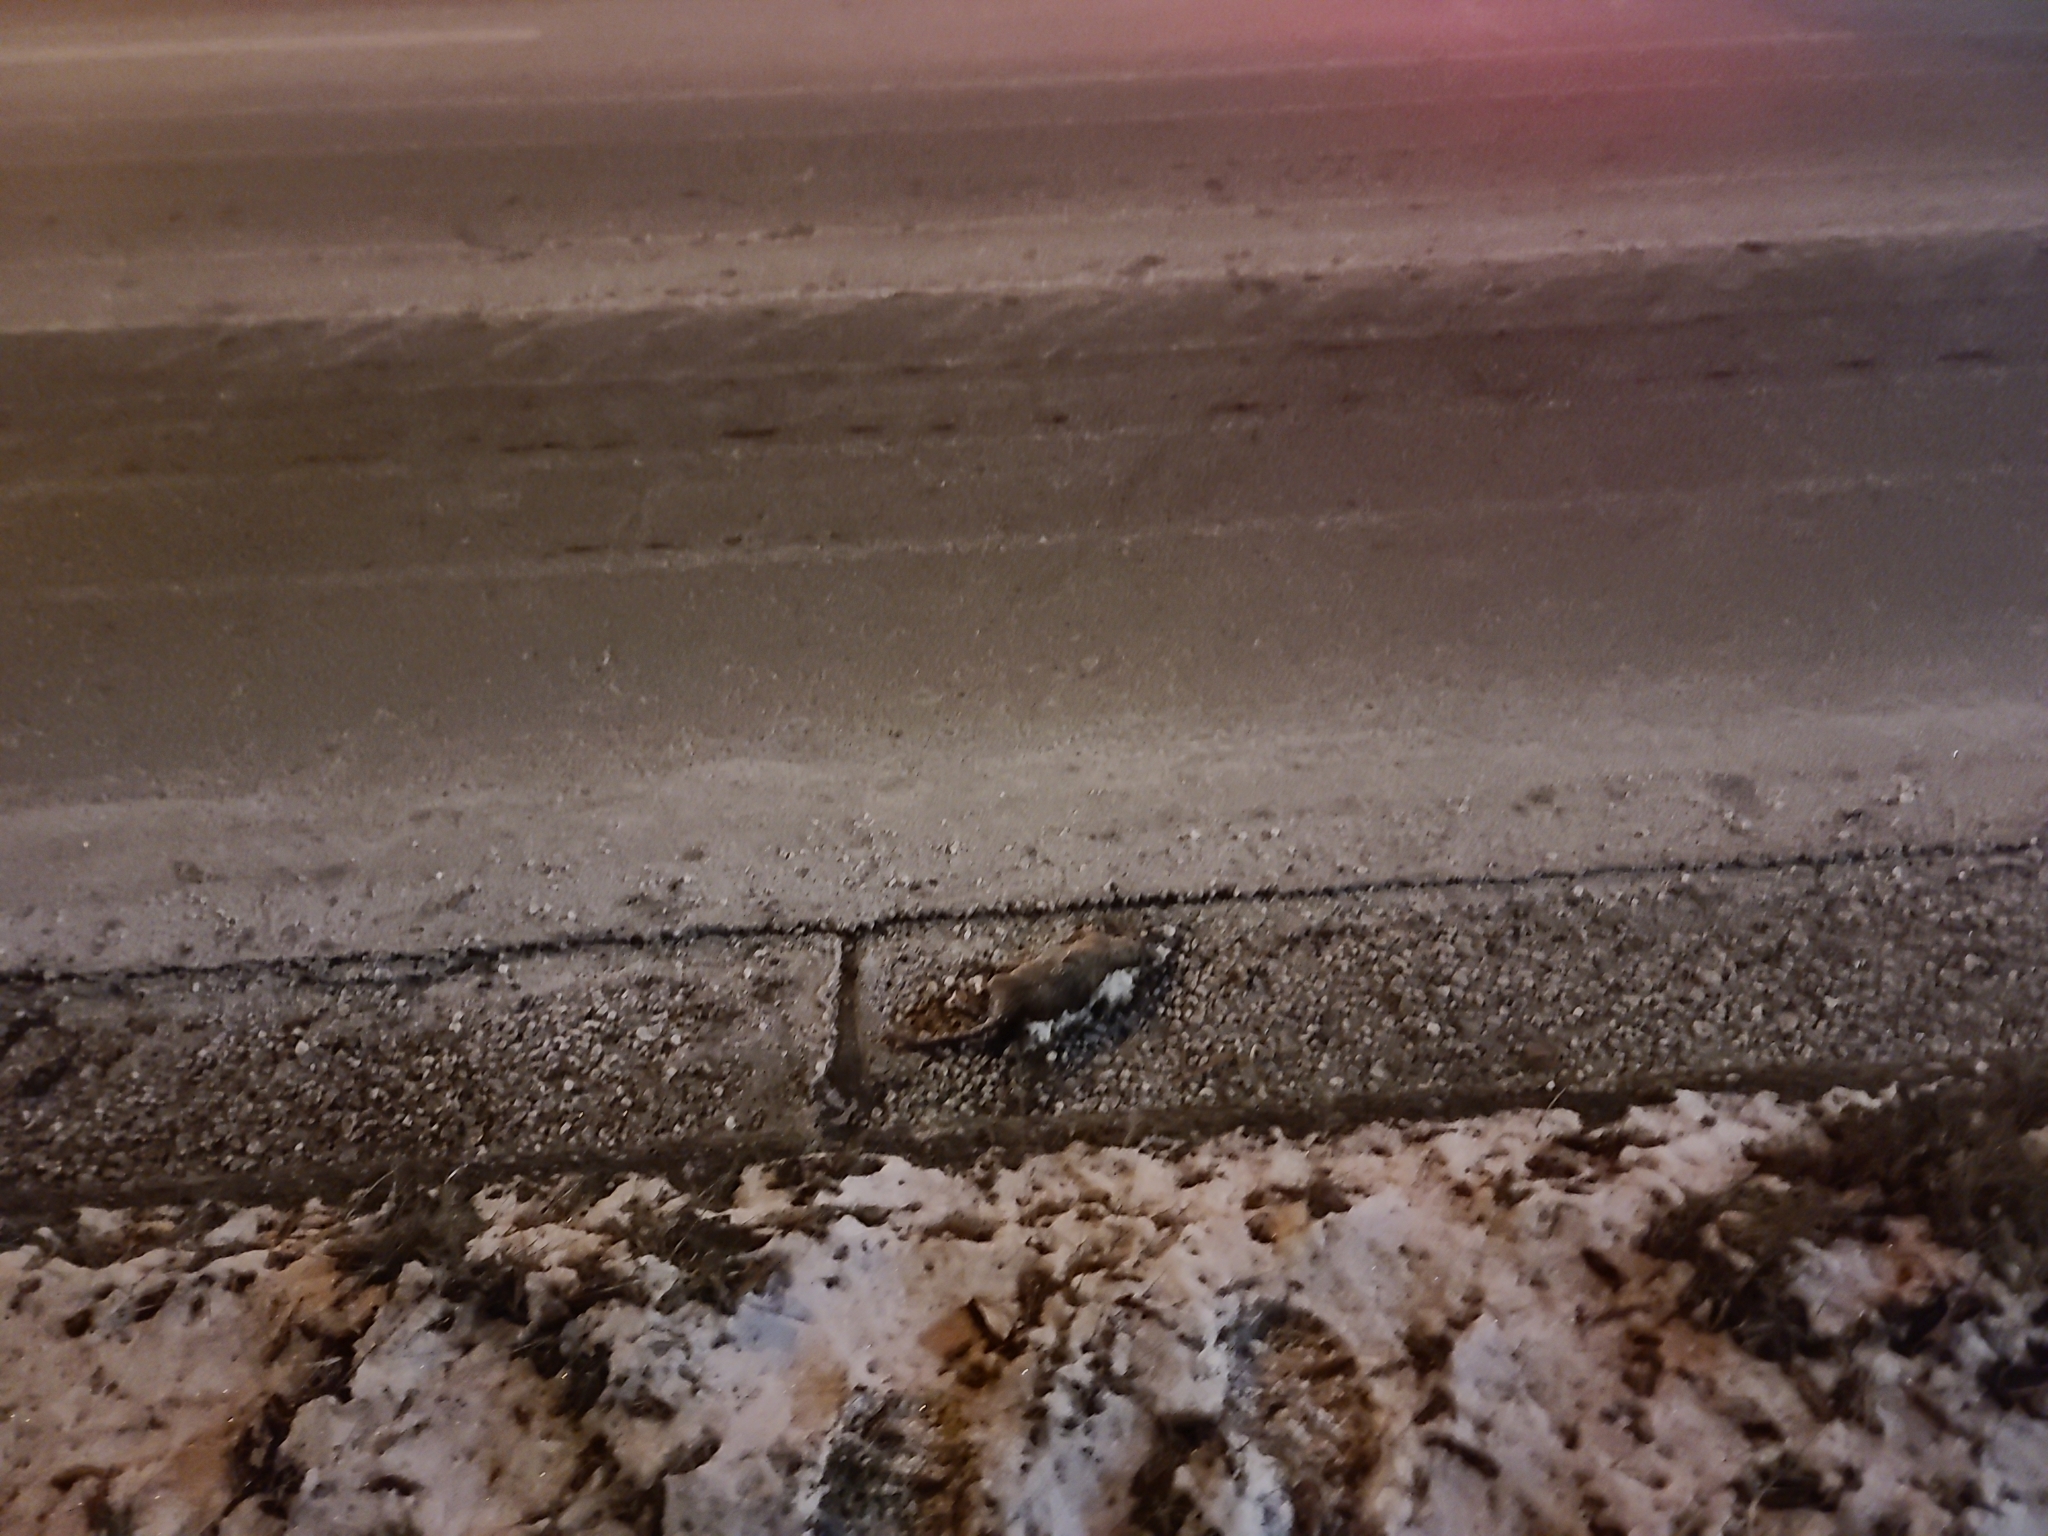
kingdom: Animalia
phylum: Chordata
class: Mammalia
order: Rodentia
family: Muridae
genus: Rattus
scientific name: Rattus norvegicus
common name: Brown rat
